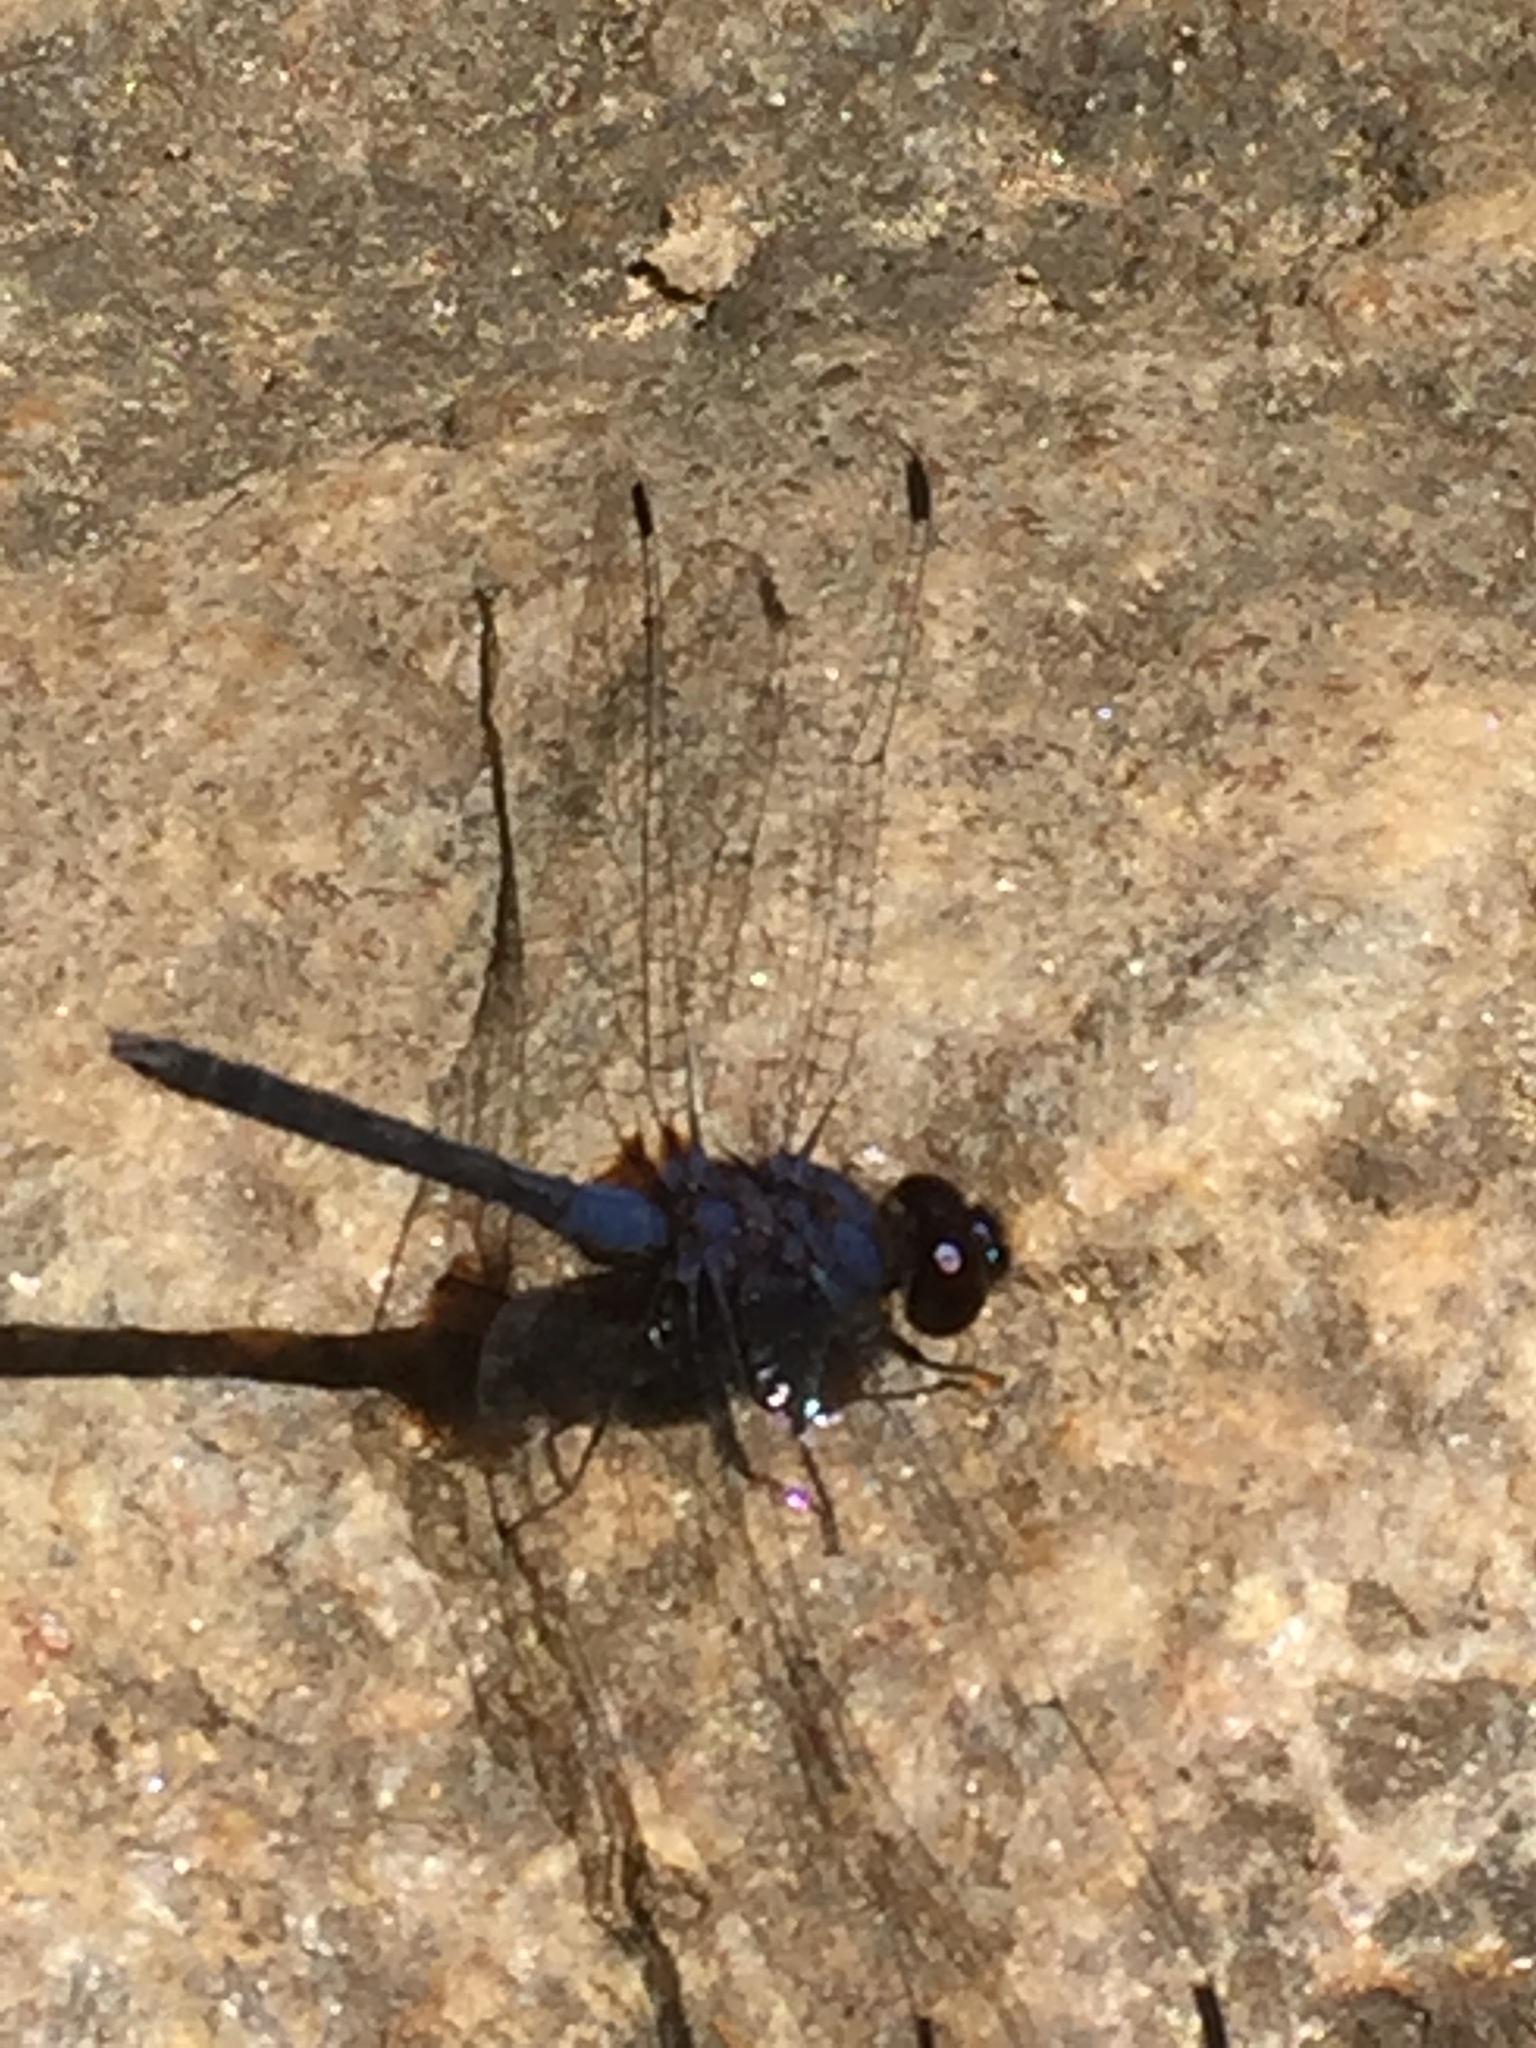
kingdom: Animalia
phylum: Arthropoda
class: Insecta
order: Odonata
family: Libellulidae
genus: Trithemis
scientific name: Trithemis festiva
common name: Indigo dropwing
